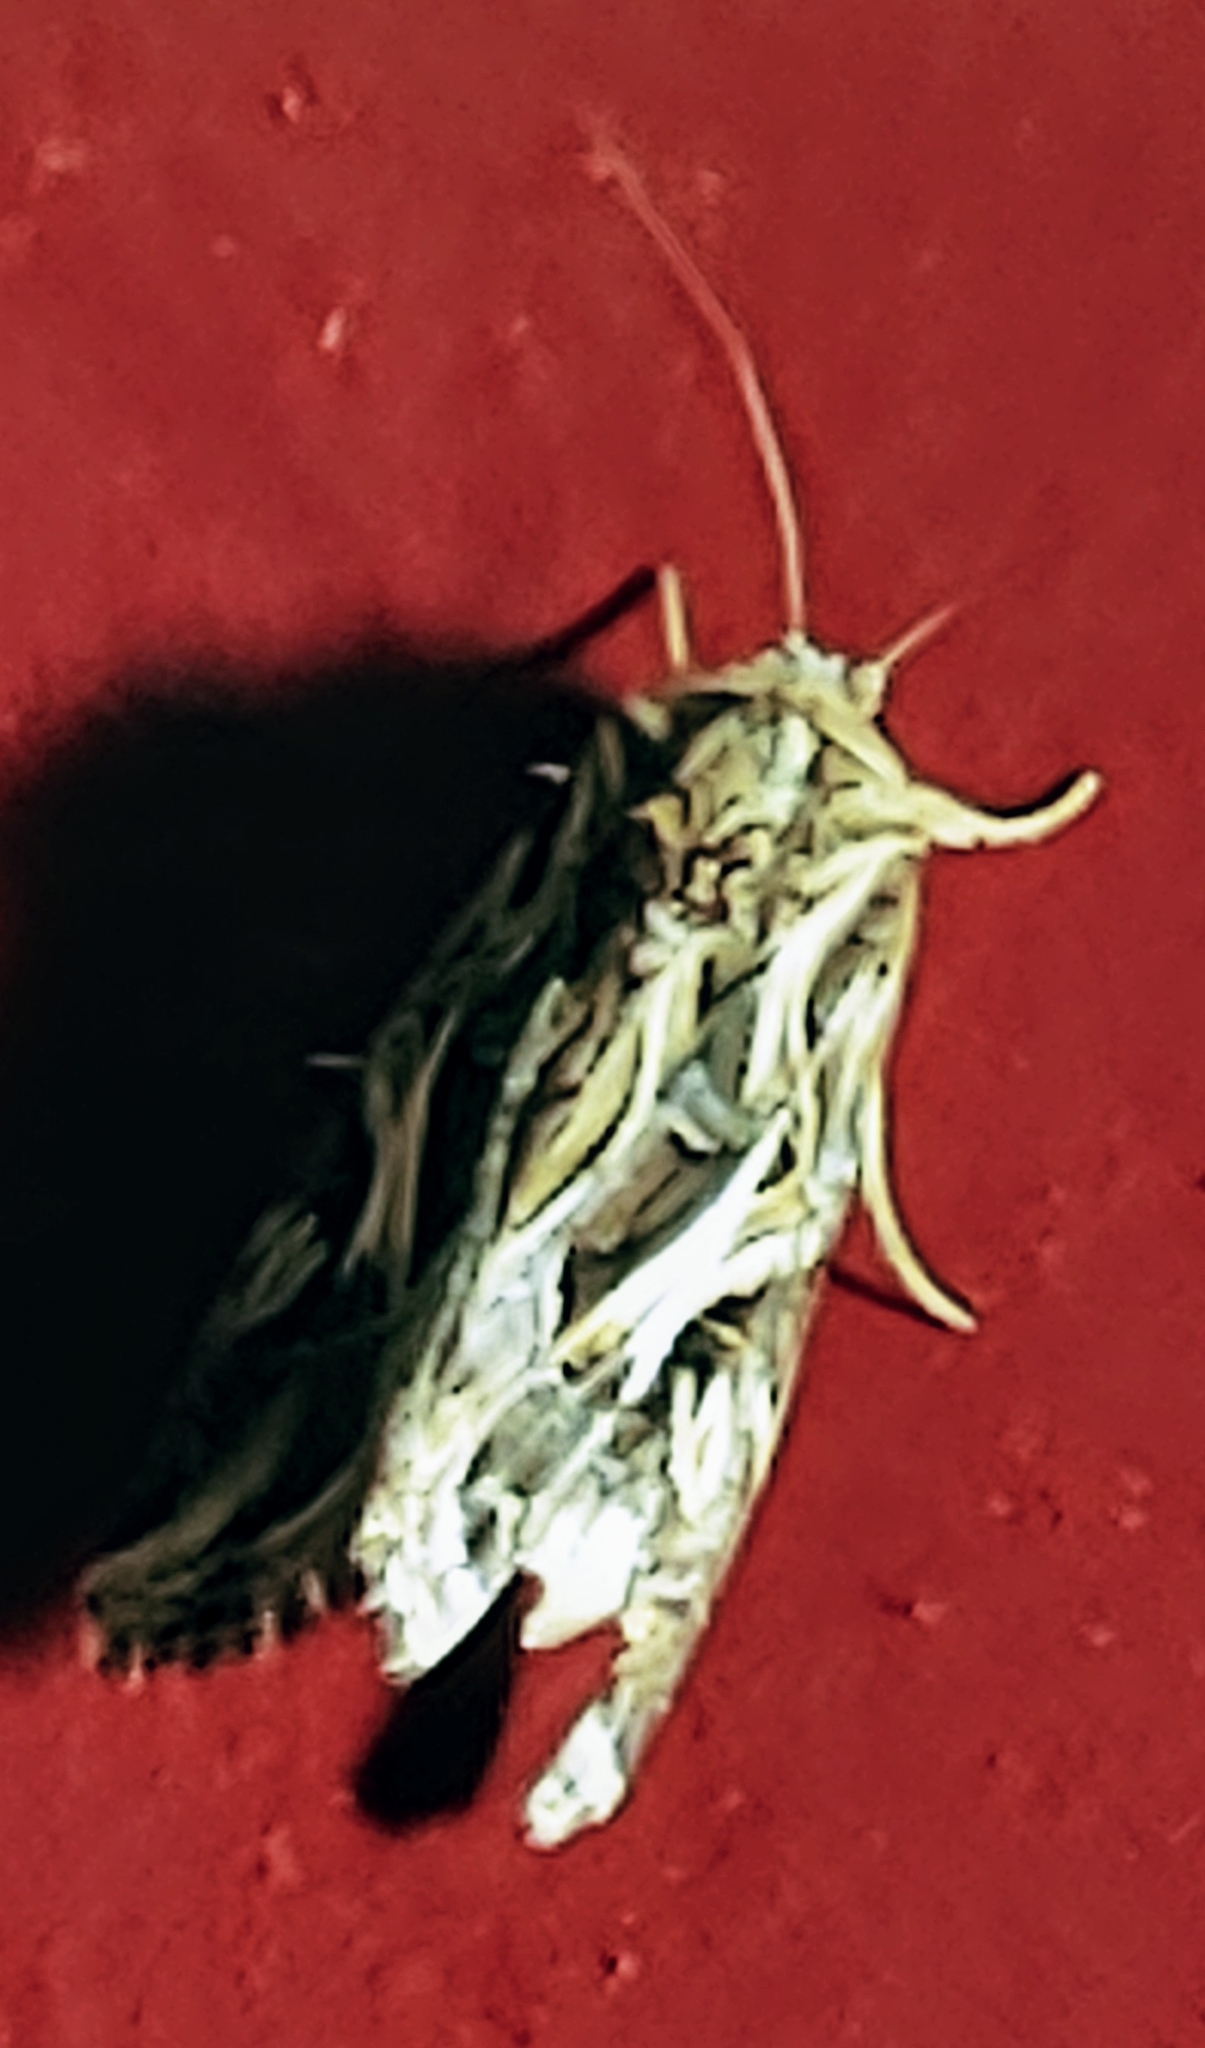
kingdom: Animalia
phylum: Arthropoda
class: Insecta
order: Lepidoptera
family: Noctuidae
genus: Spodoptera
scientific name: Spodoptera pulchella
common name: Caribbean armyworm moth
